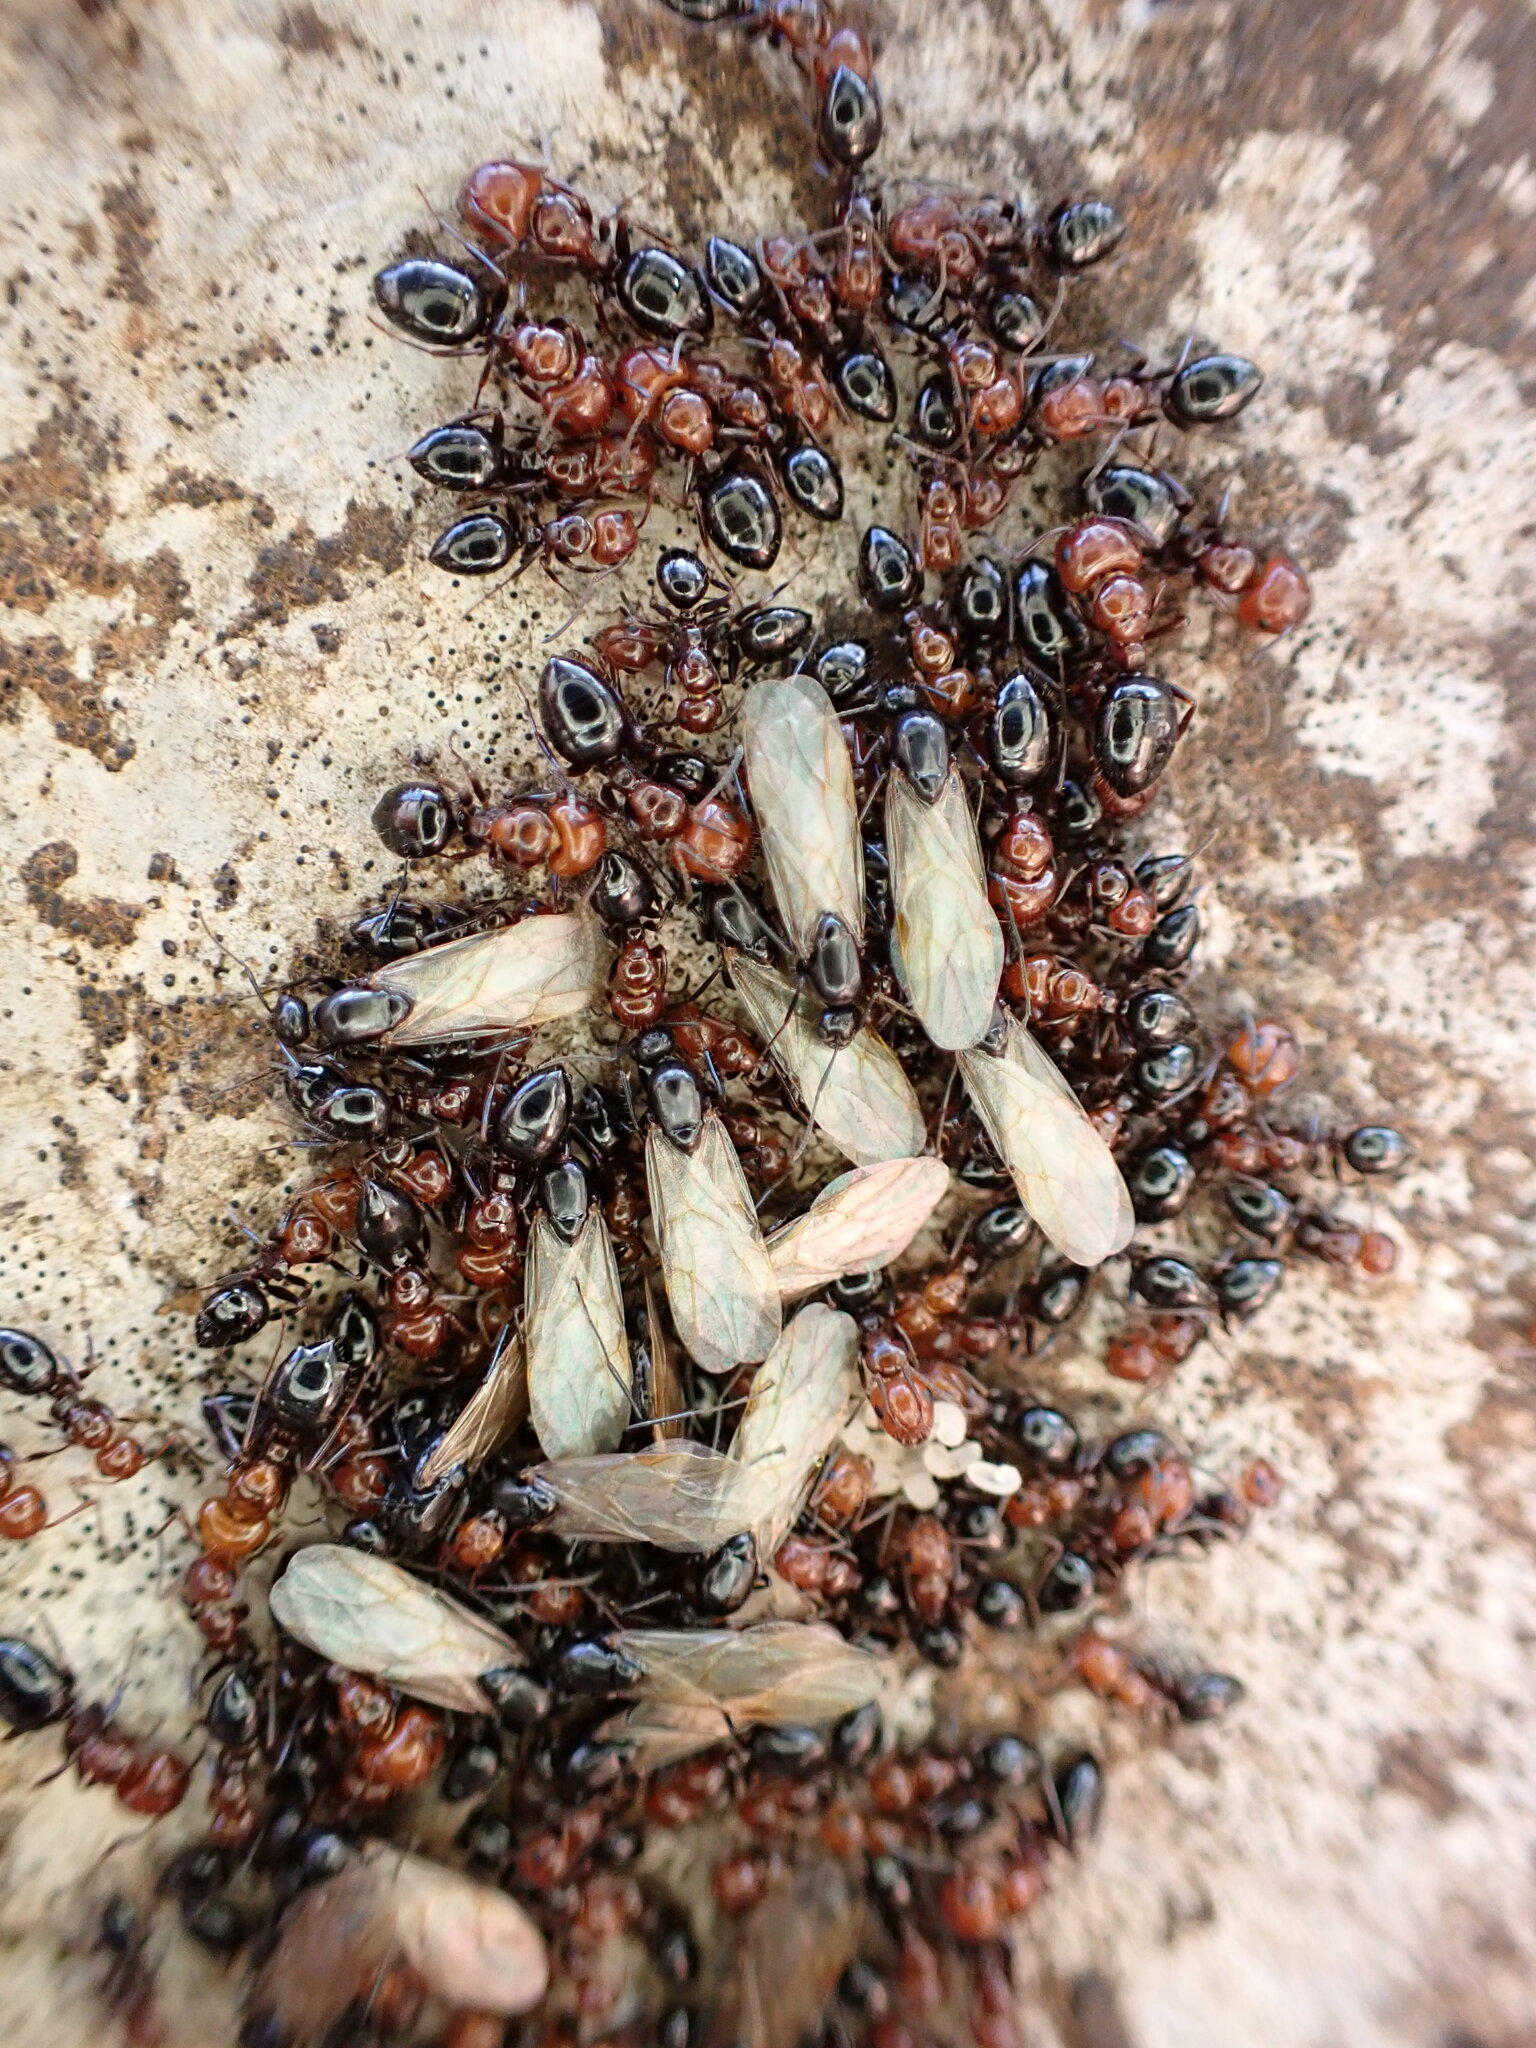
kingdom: Animalia
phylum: Arthropoda
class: Insecta
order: Hymenoptera
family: Formicidae
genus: Camponotus
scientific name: Camponotus lateralis
